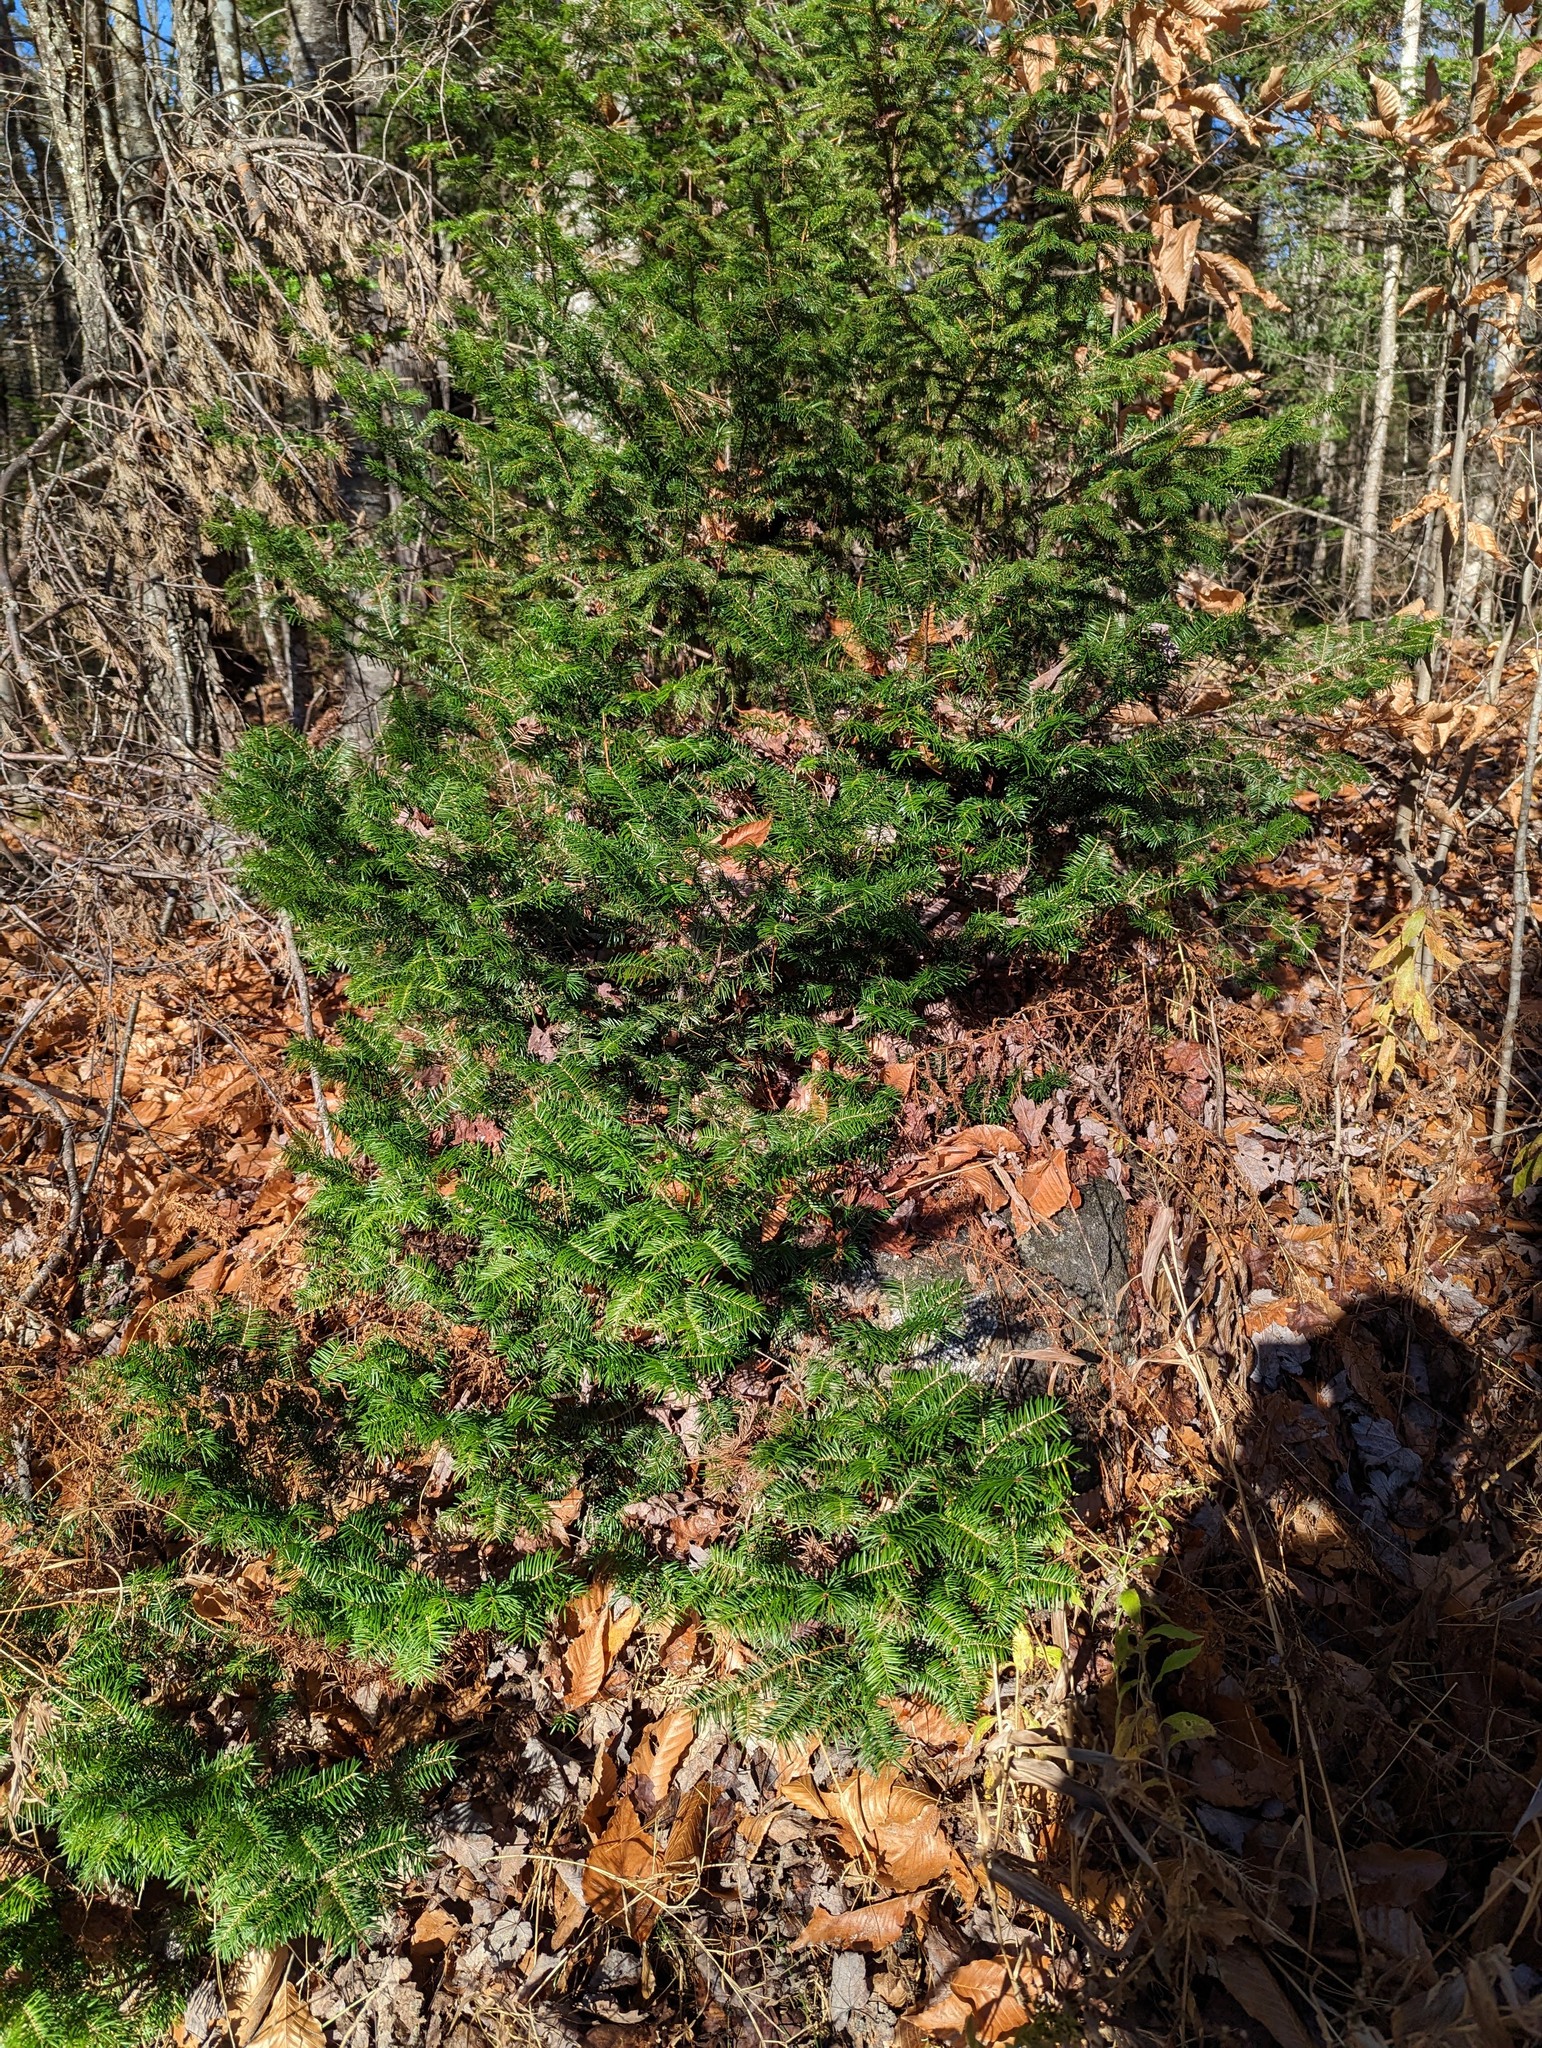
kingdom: Plantae
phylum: Tracheophyta
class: Pinopsida
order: Pinales
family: Pinaceae
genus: Abies
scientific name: Abies balsamea
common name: Balsam fir
